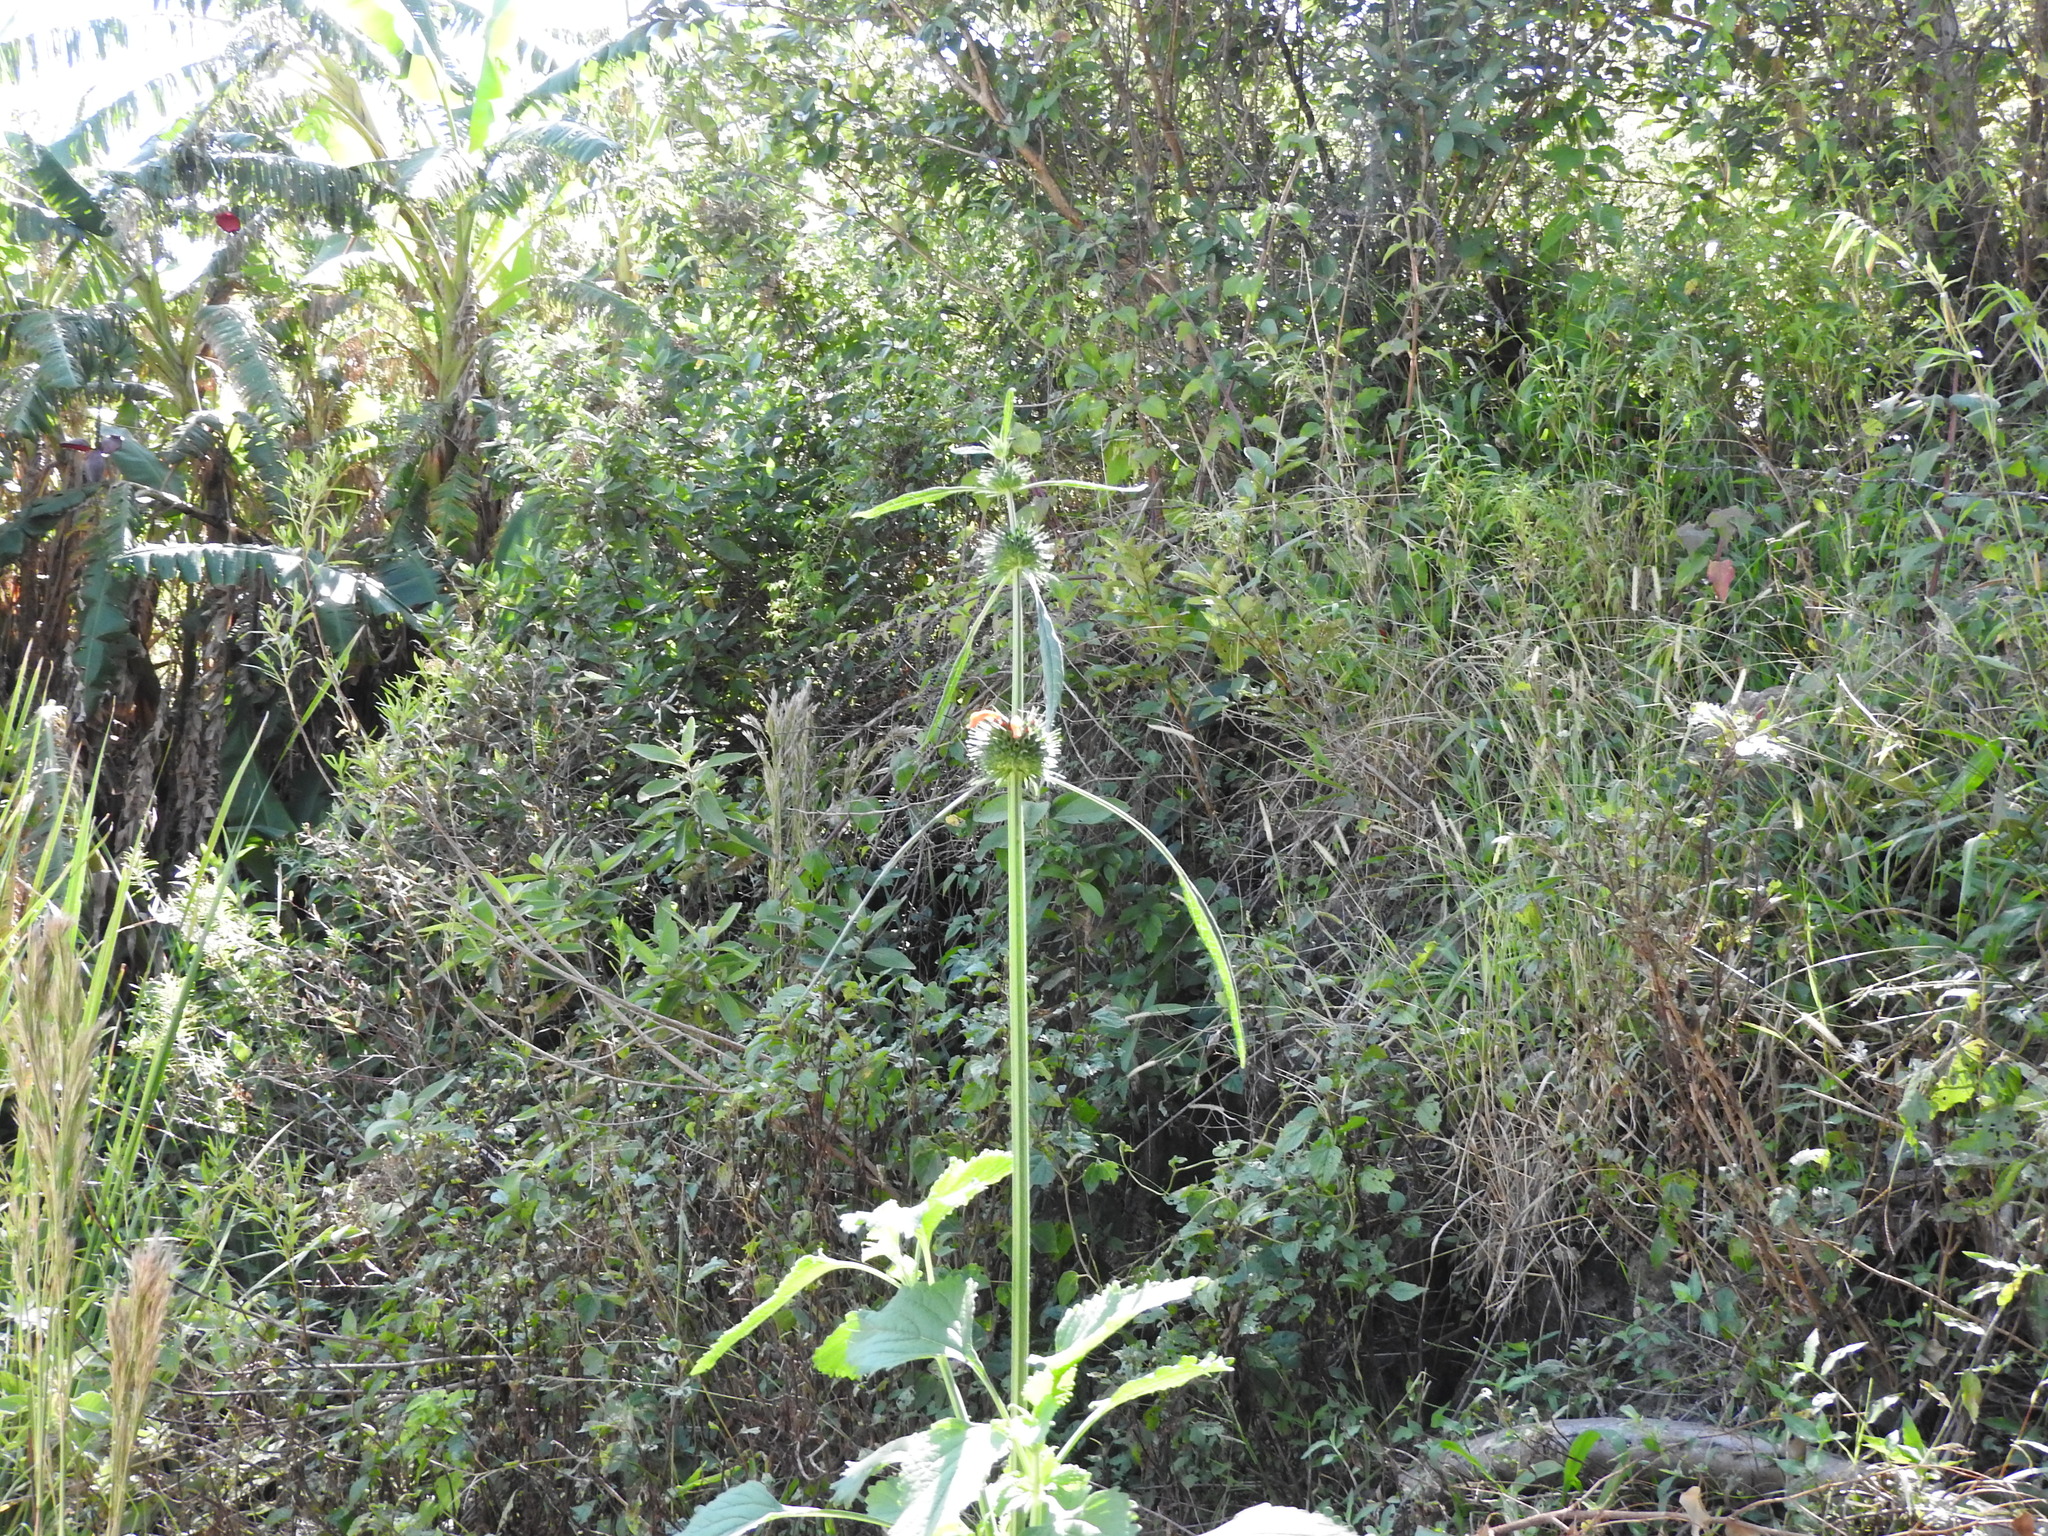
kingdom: Plantae
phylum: Tracheophyta
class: Magnoliopsida
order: Lamiales
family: Lamiaceae
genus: Leonotis
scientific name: Leonotis nepetifolia
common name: Christmas candlestick
